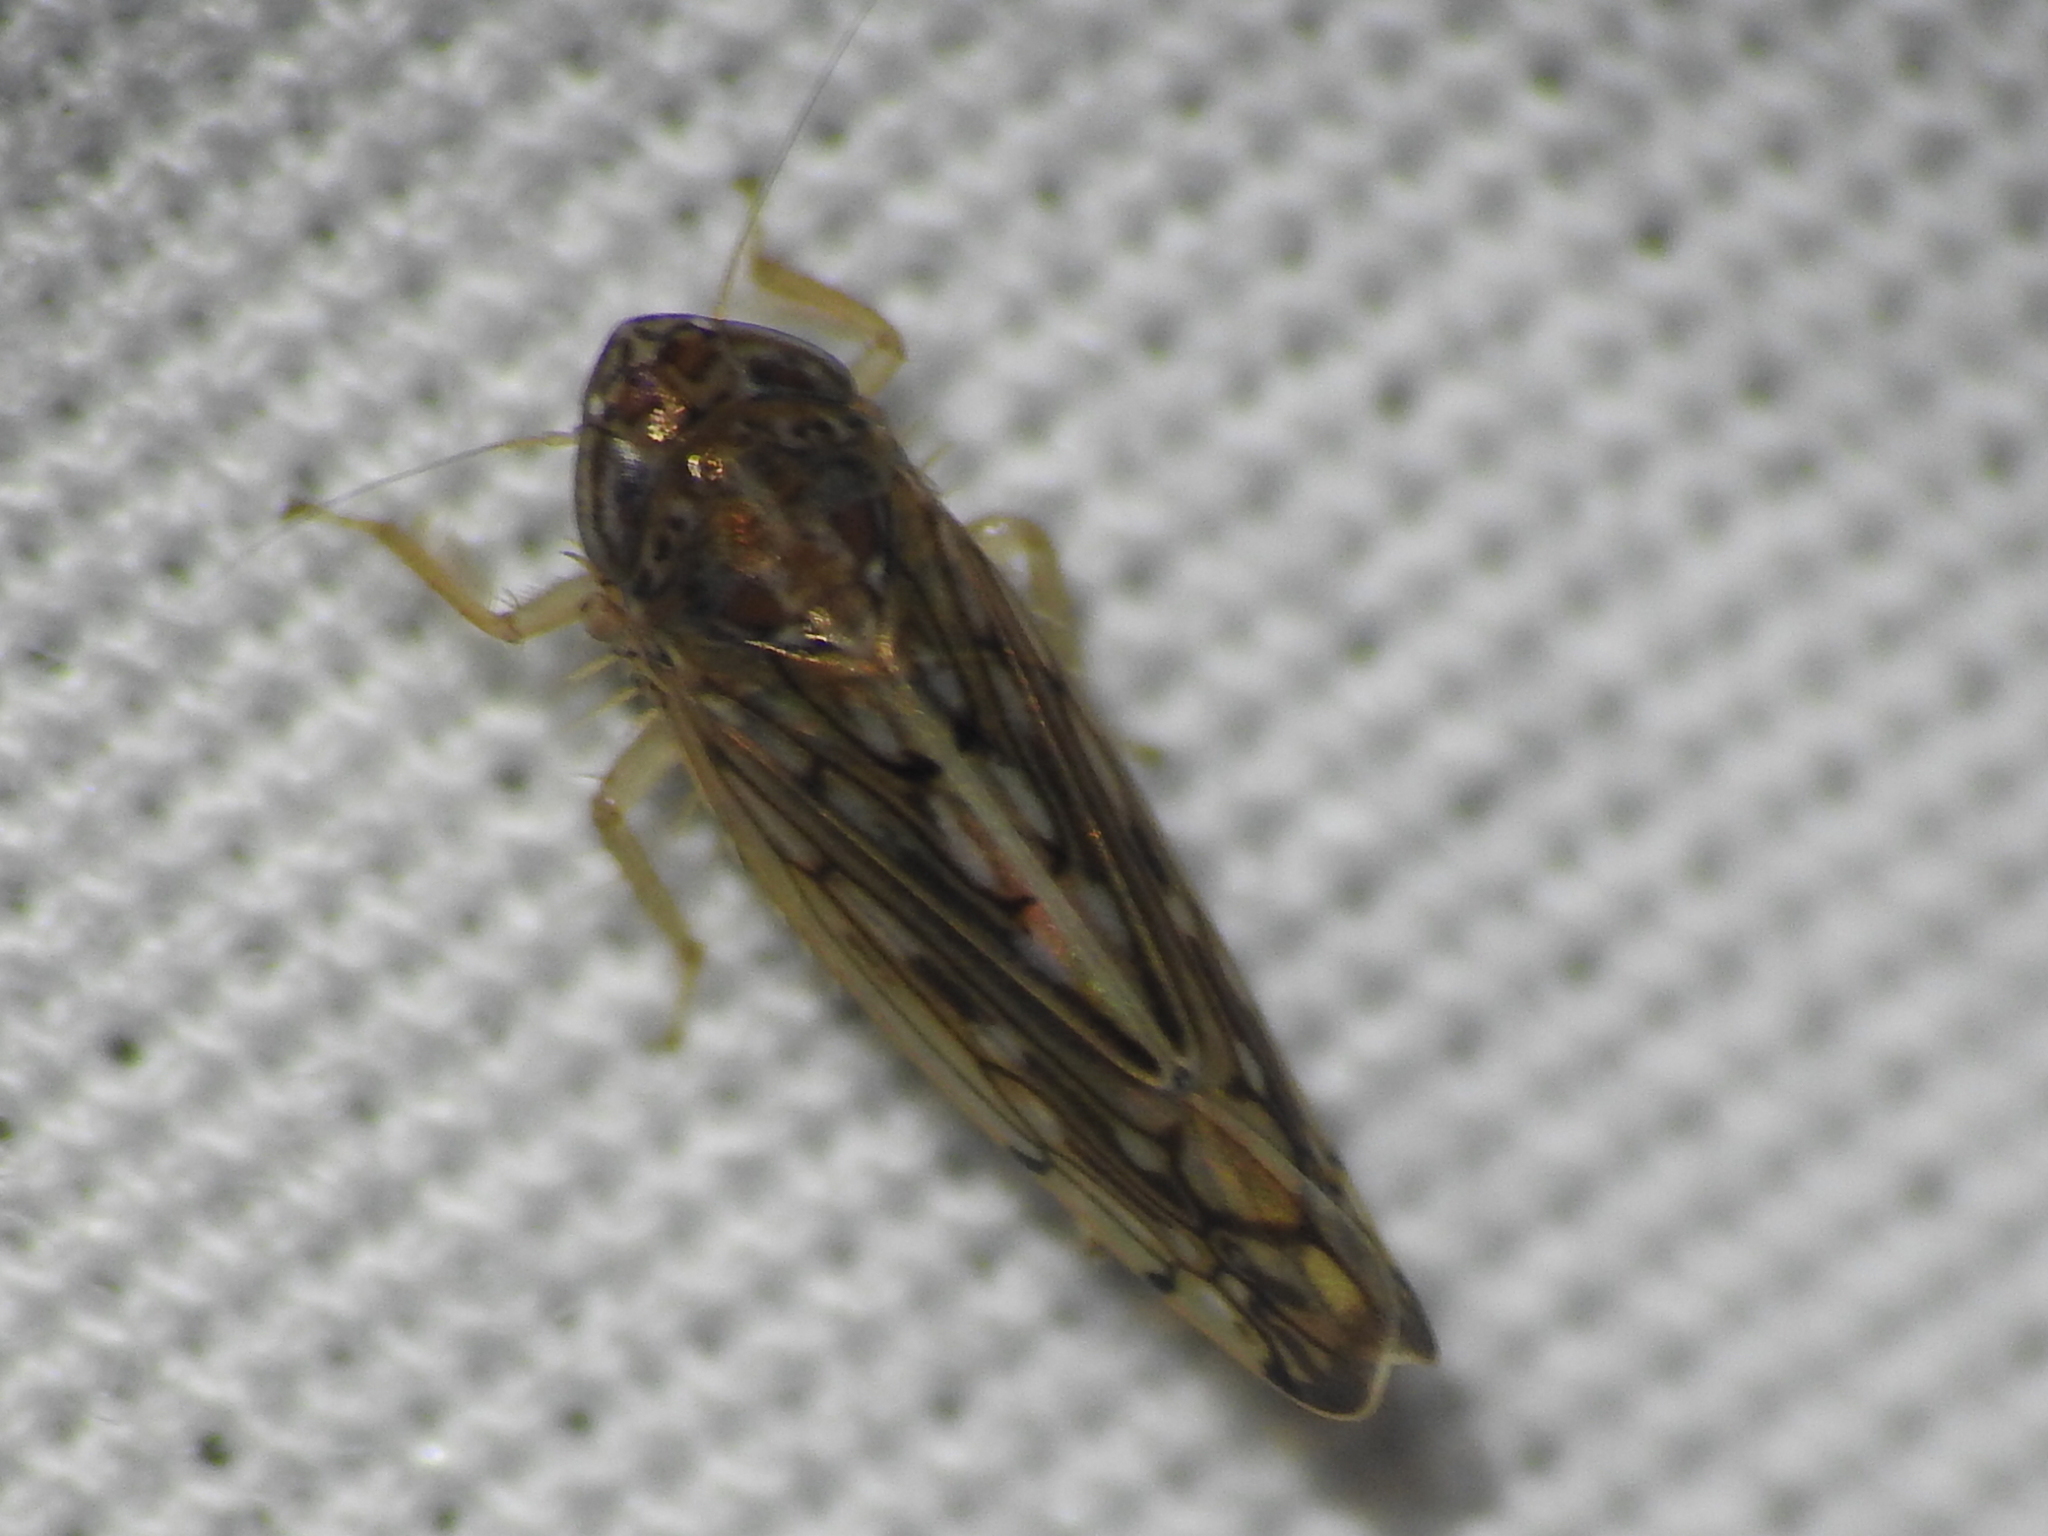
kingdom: Animalia
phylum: Arthropoda
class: Insecta
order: Hemiptera
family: Cicadellidae
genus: Osbornellus
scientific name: Osbornellus clarus
